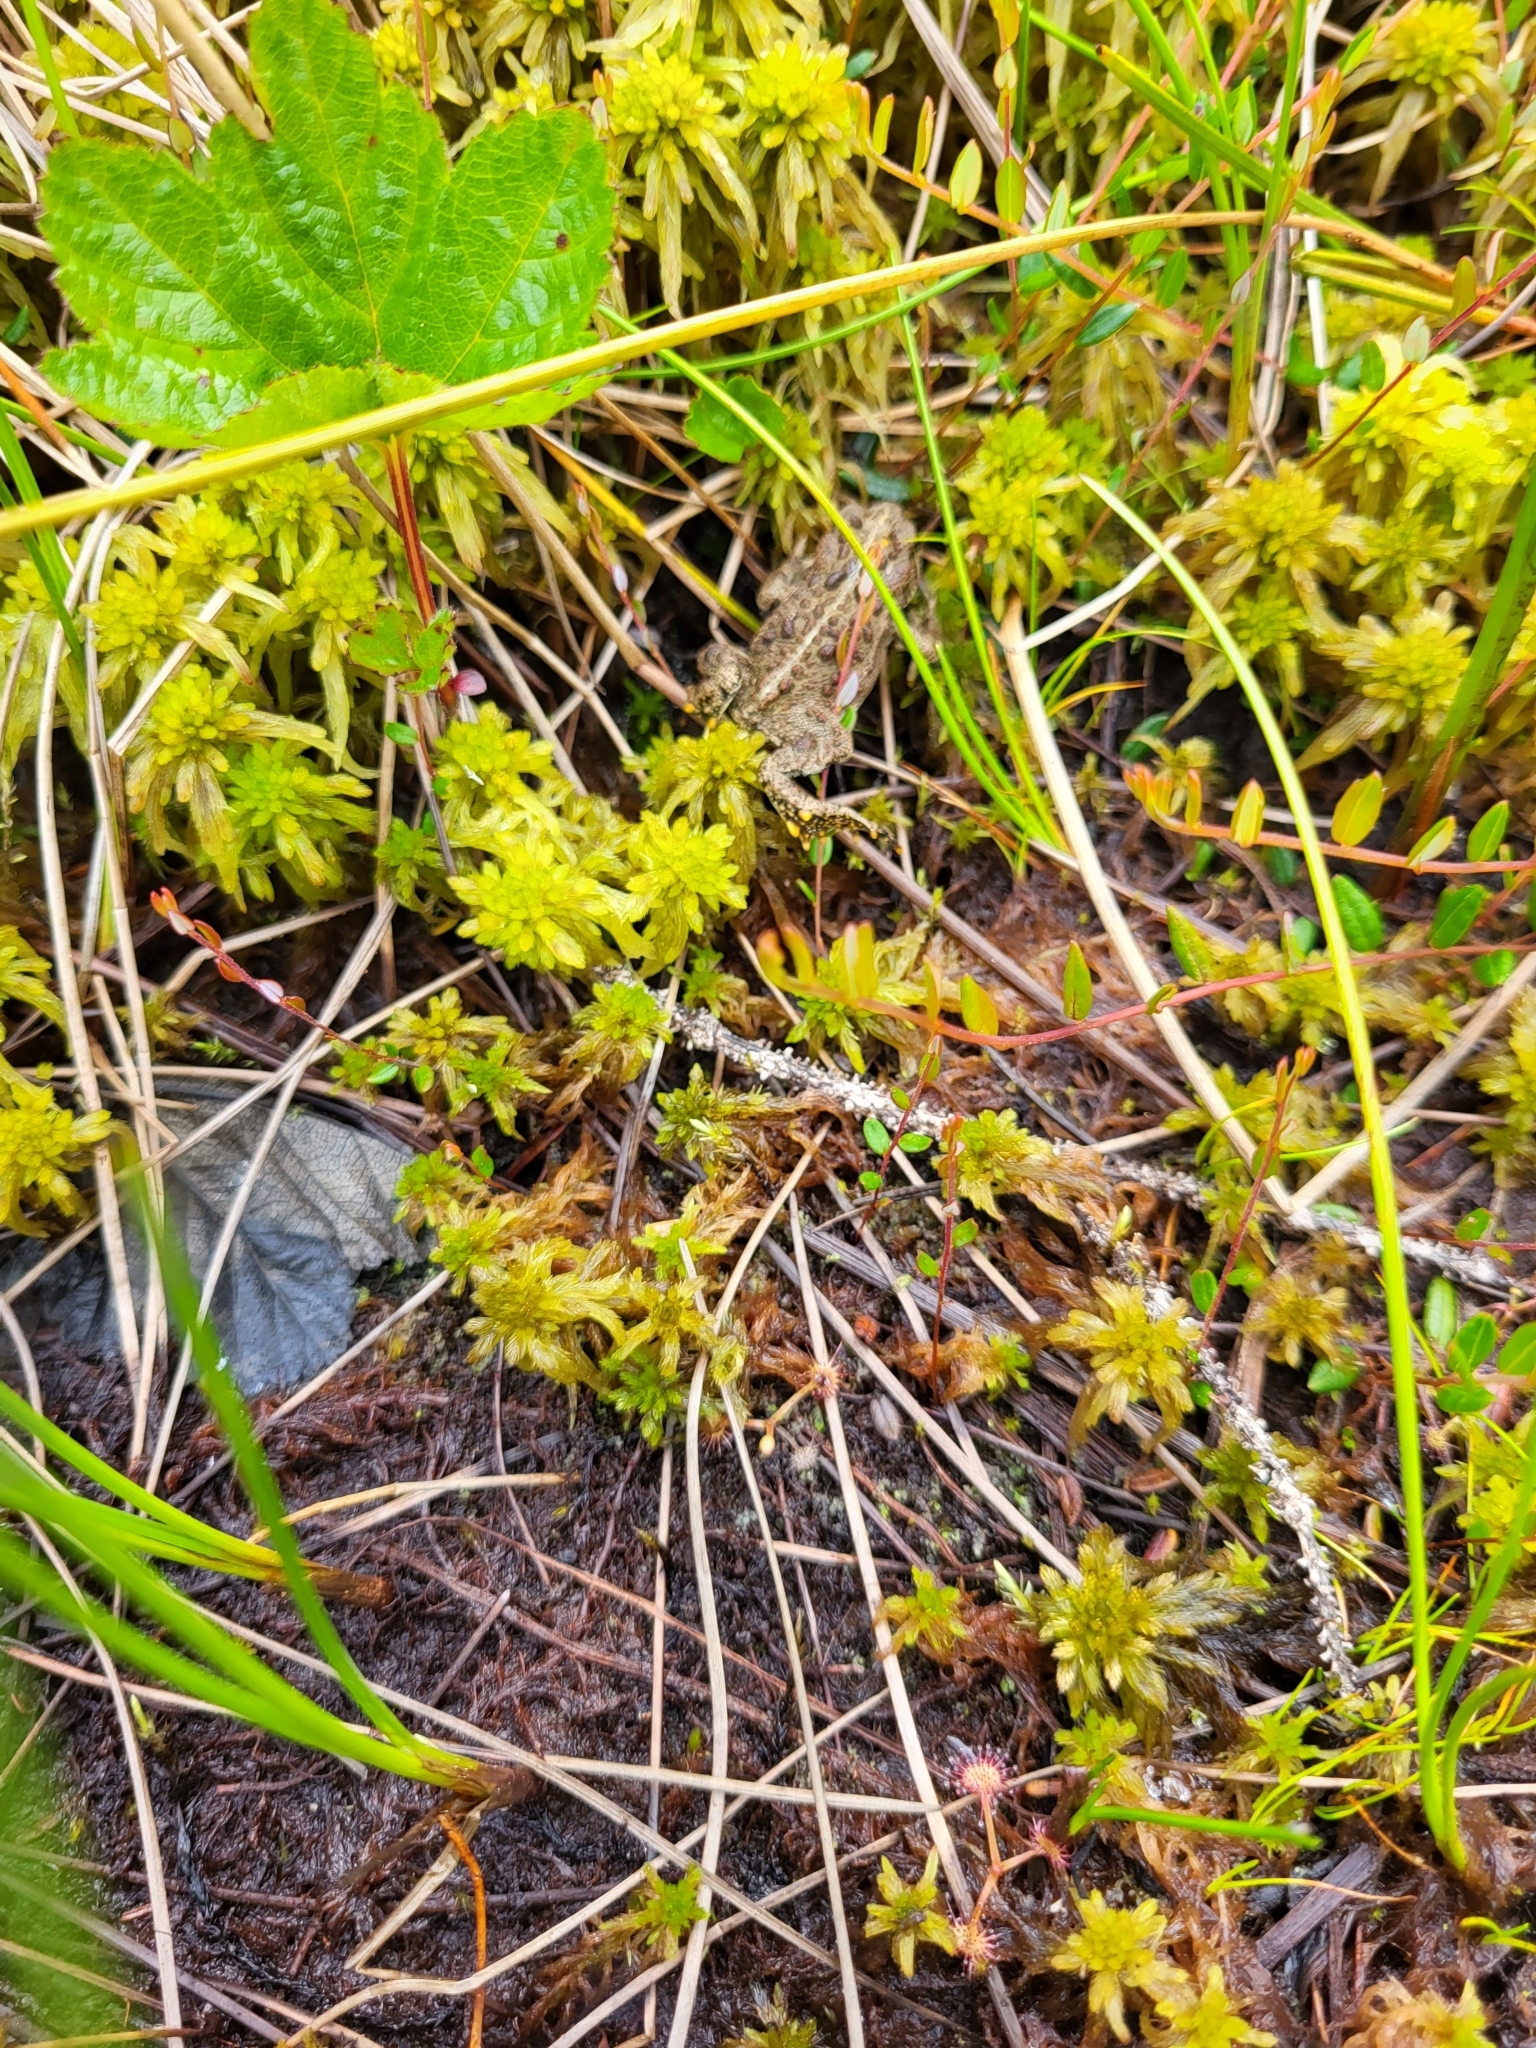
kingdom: Animalia
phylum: Chordata
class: Amphibia
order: Anura
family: Bufonidae
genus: Anaxyrus
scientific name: Anaxyrus boreas
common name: Western toad
